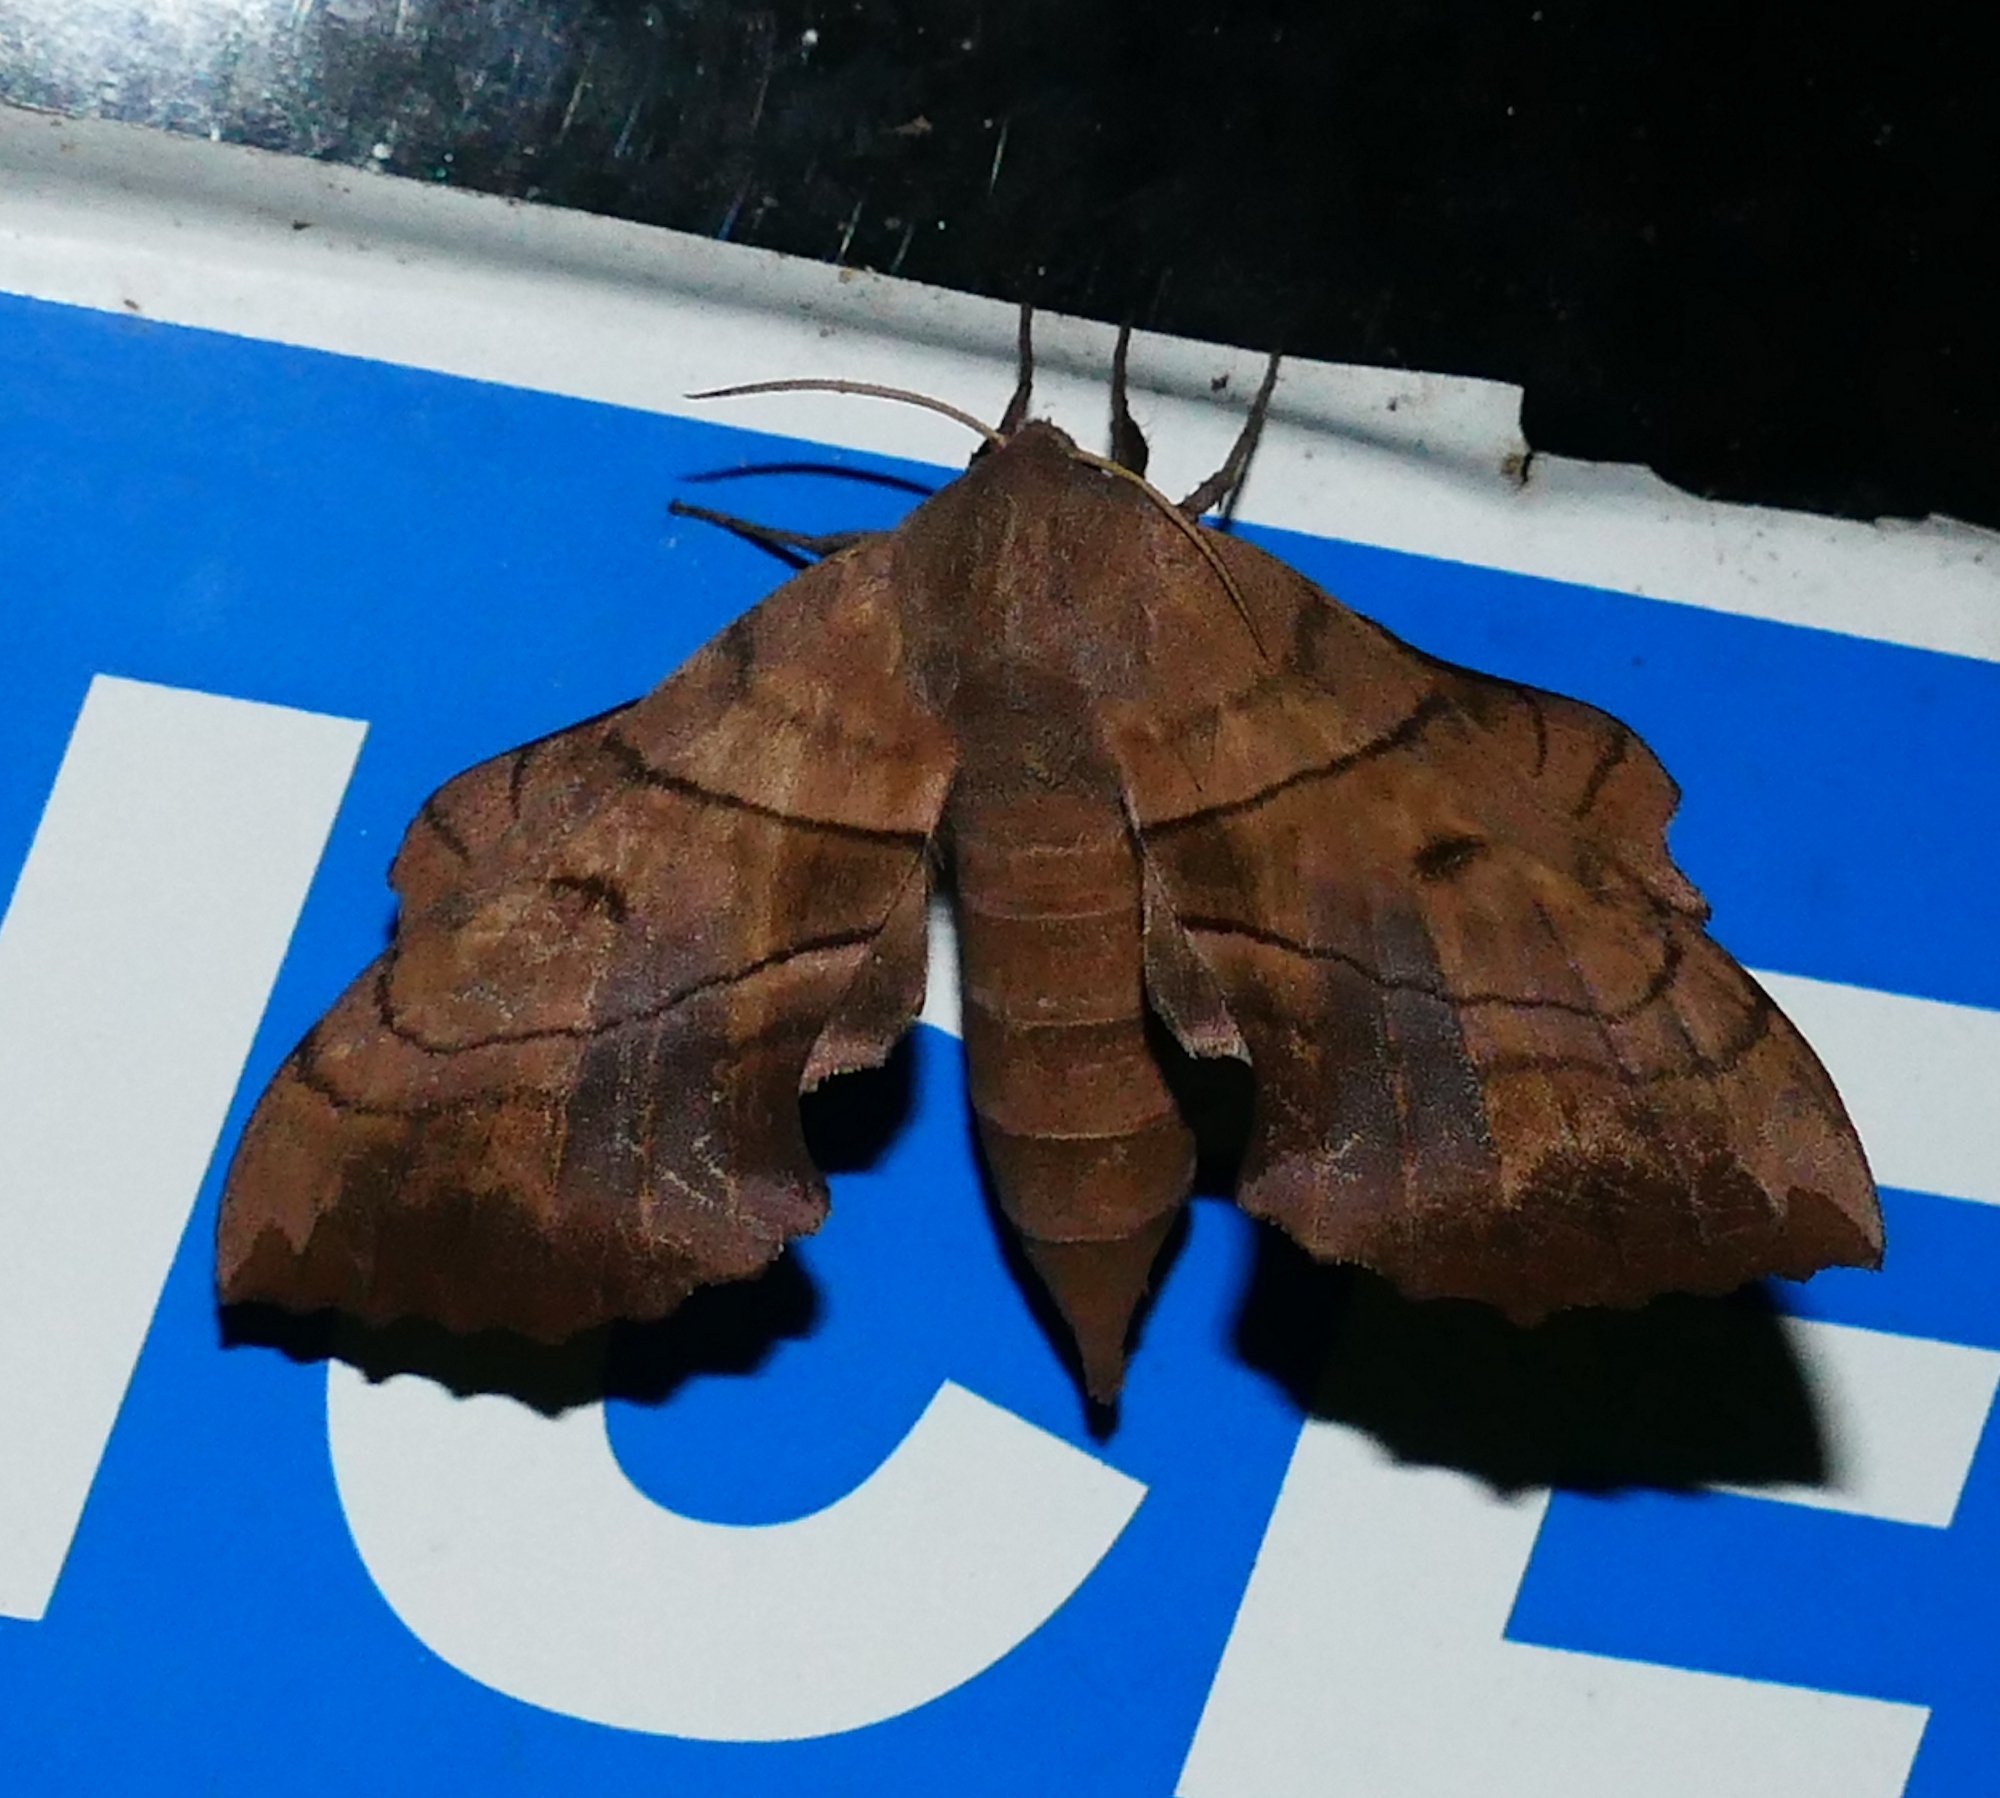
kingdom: Animalia
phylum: Arthropoda
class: Insecta
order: Lepidoptera
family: Sphingidae
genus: Amorpha
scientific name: Amorpha juglandis
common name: Walnut sphinx
